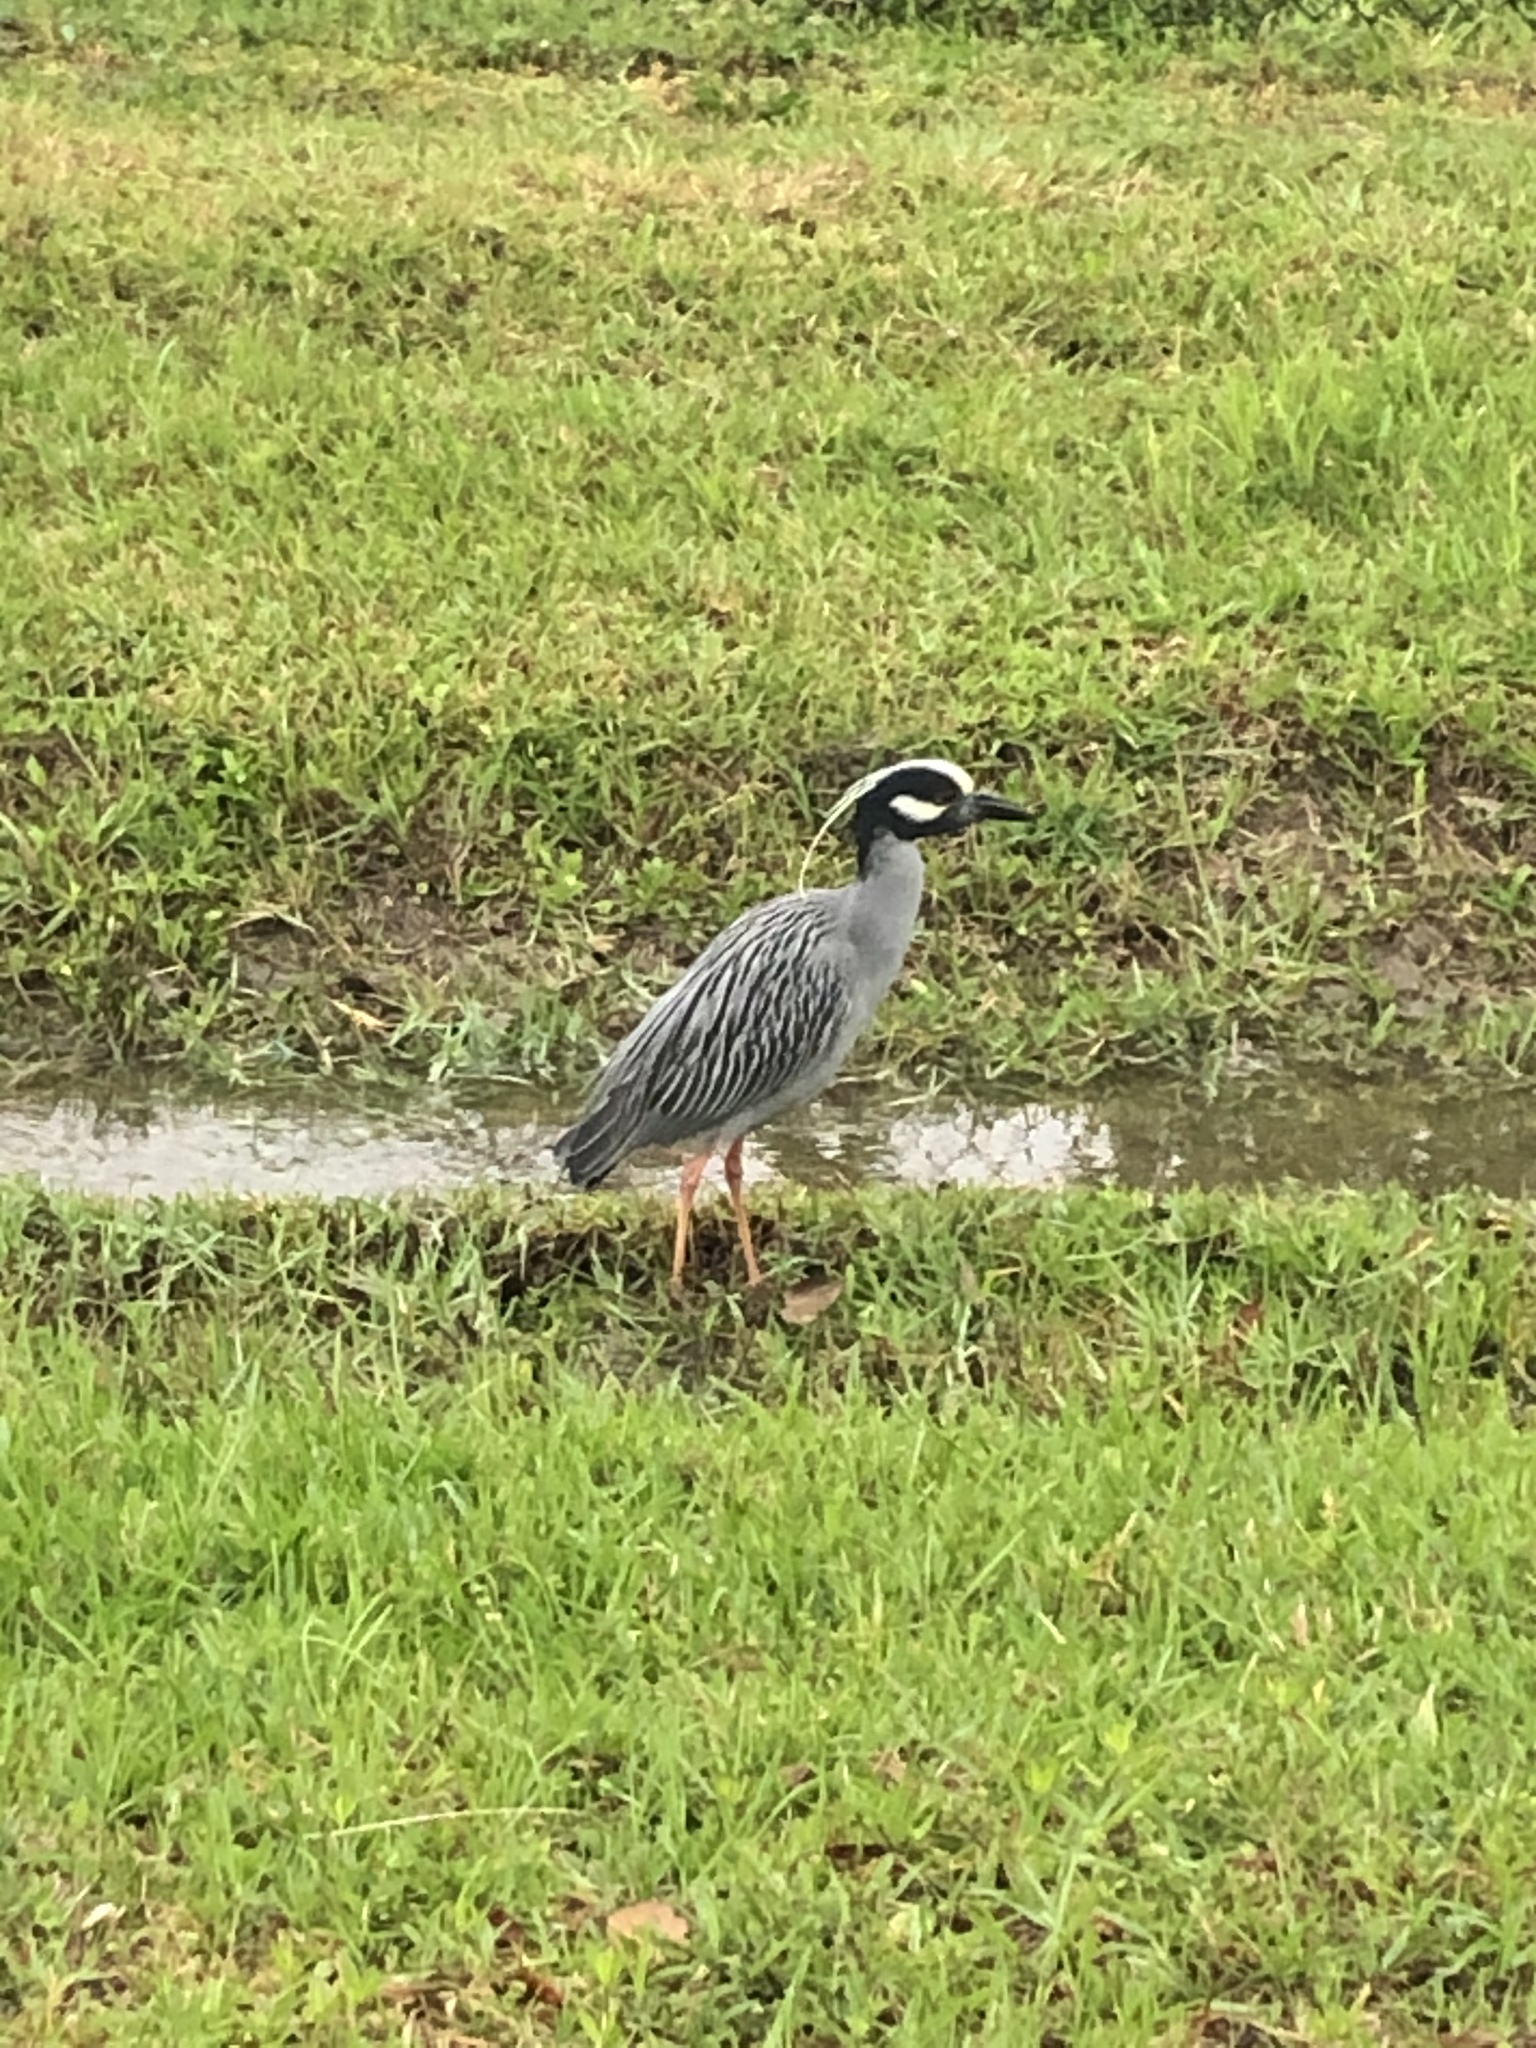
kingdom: Animalia
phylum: Chordata
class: Aves
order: Pelecaniformes
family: Ardeidae
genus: Nyctanassa
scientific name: Nyctanassa violacea
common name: Yellow-crowned night heron
